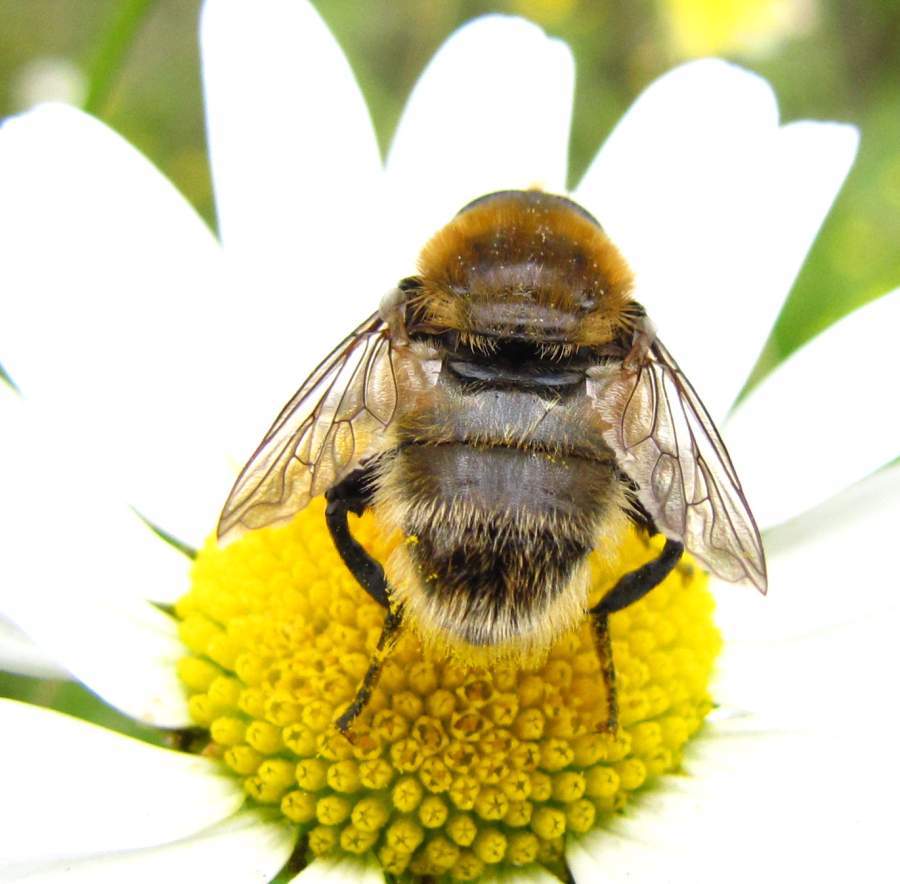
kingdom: Animalia
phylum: Arthropoda
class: Insecta
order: Diptera
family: Syrphidae
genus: Merodon
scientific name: Merodon equestris
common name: Greater bulb-fly
